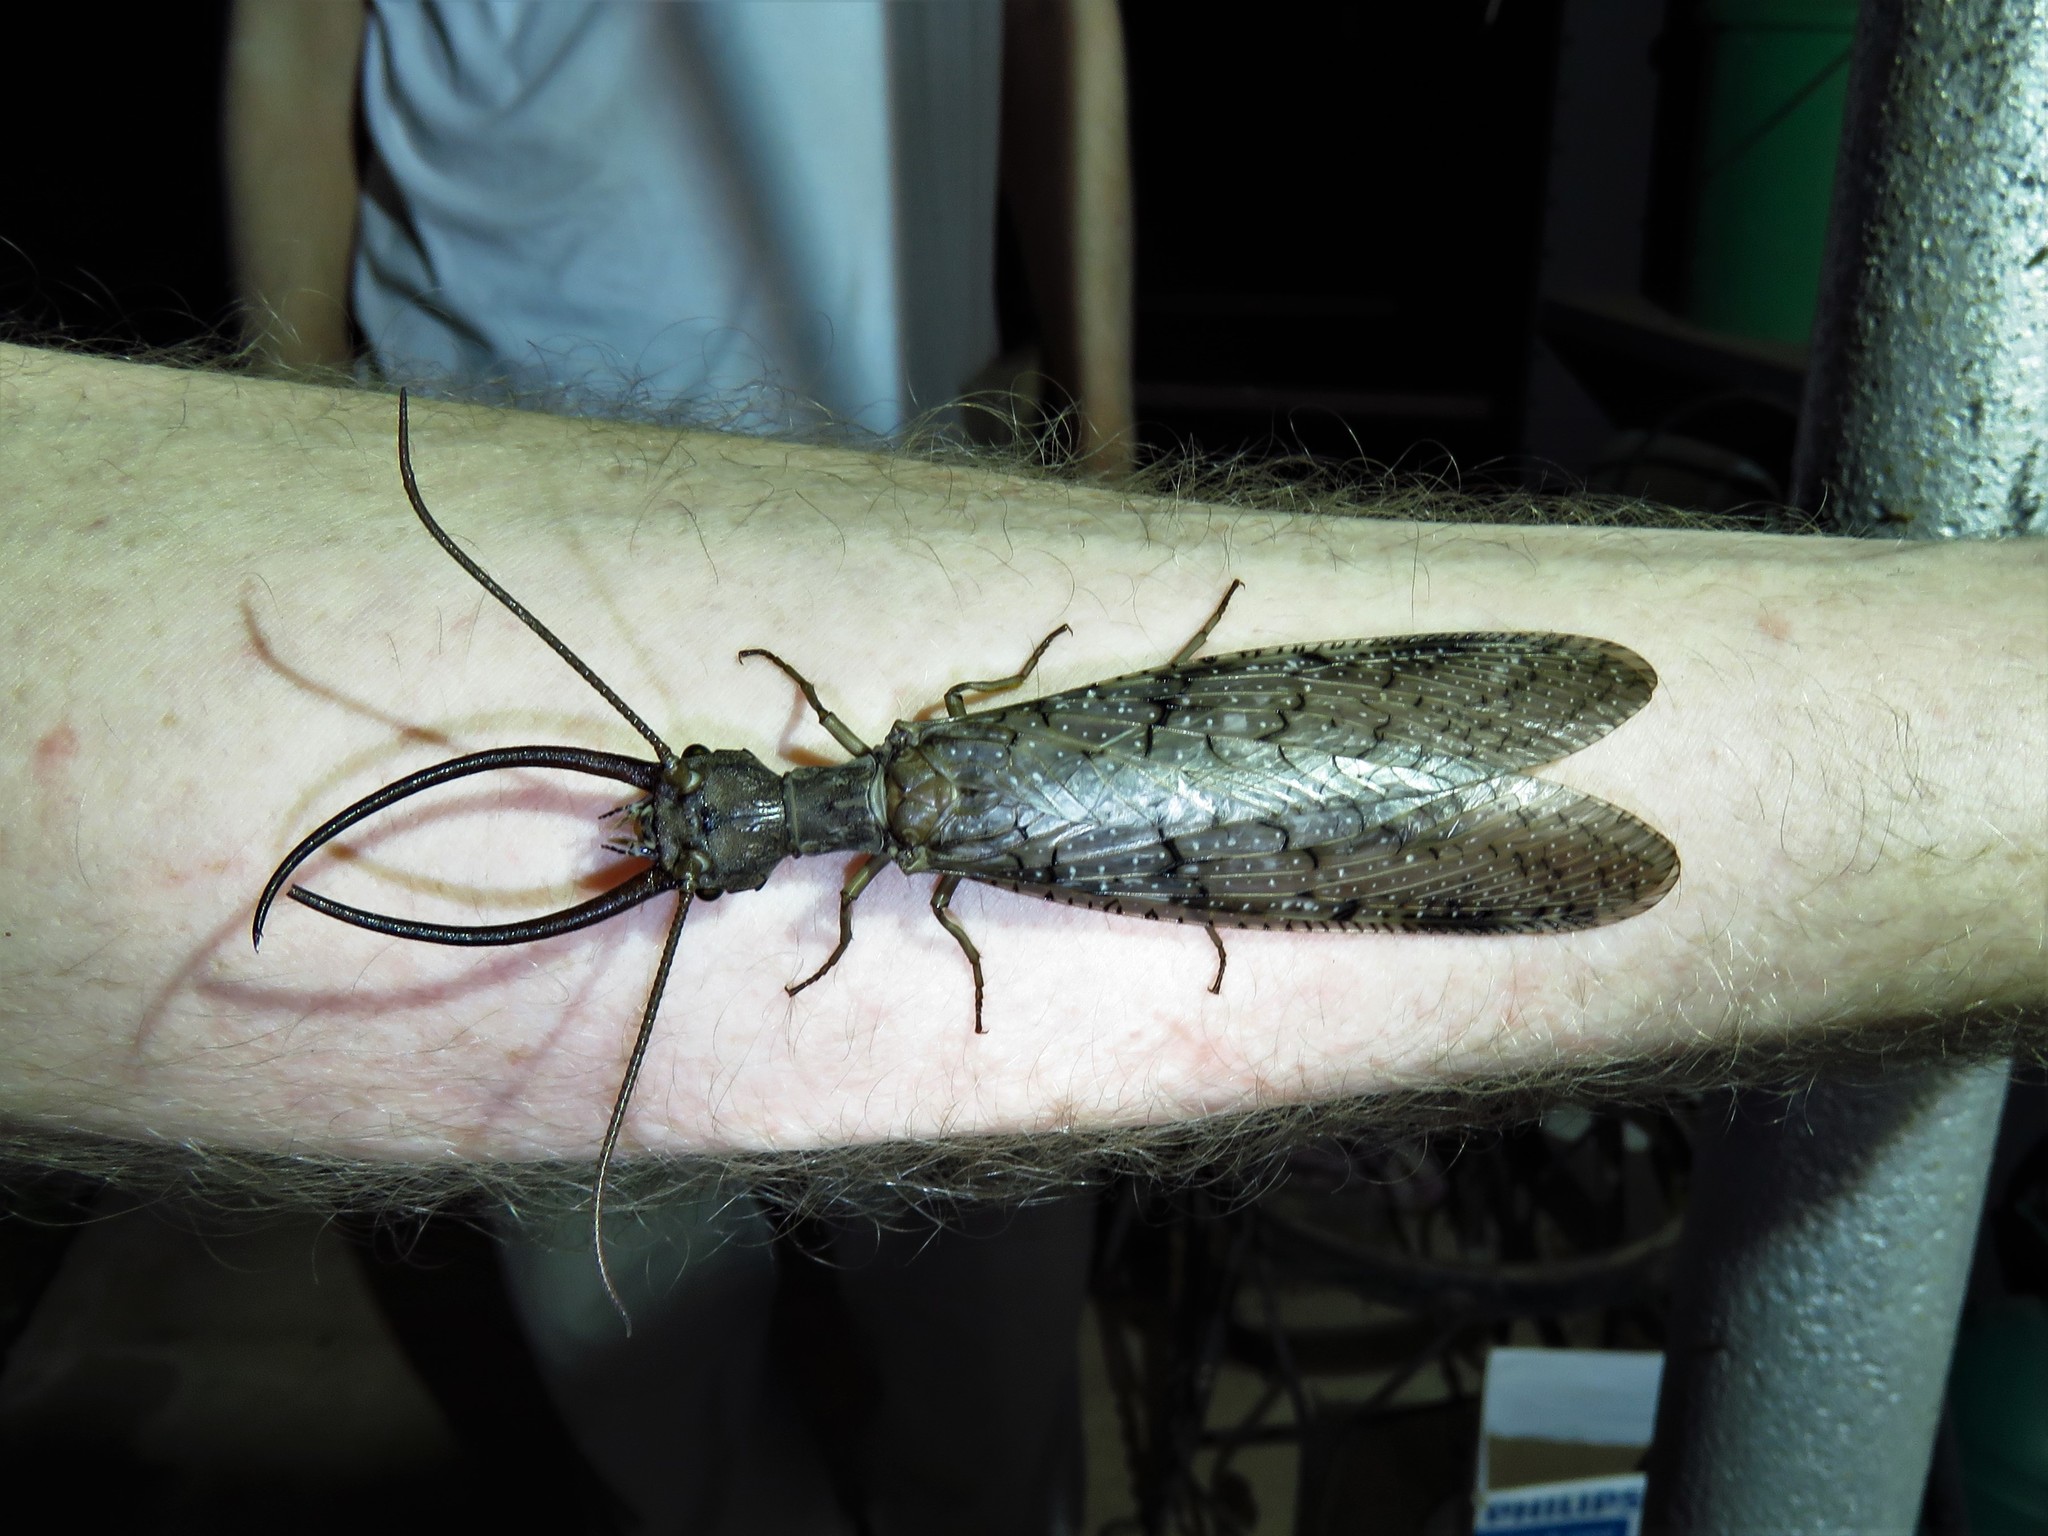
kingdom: Animalia
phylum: Arthropoda
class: Insecta
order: Megaloptera
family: Corydalidae
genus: Corydalus
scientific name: Corydalus cornutus
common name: Dobsonfly
